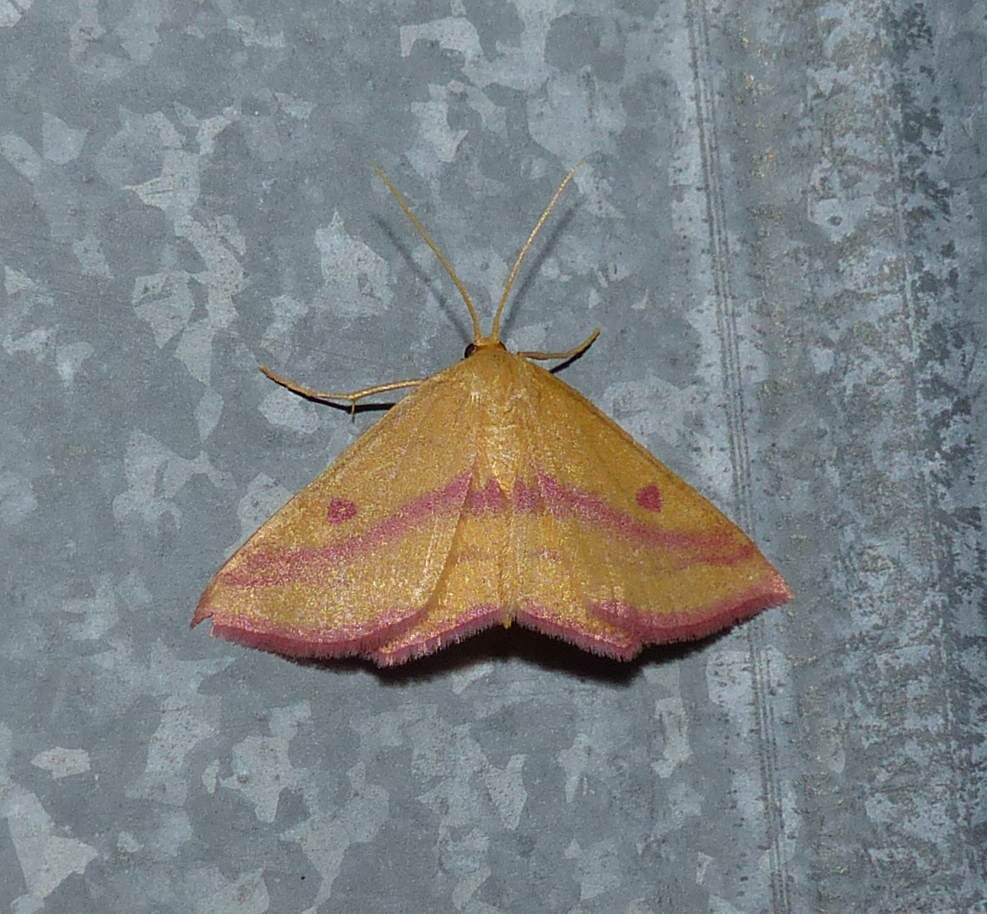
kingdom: Animalia
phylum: Arthropoda
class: Insecta
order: Lepidoptera
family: Geometridae
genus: Haematopis
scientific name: Haematopis grataria
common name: Chickweed geometer
